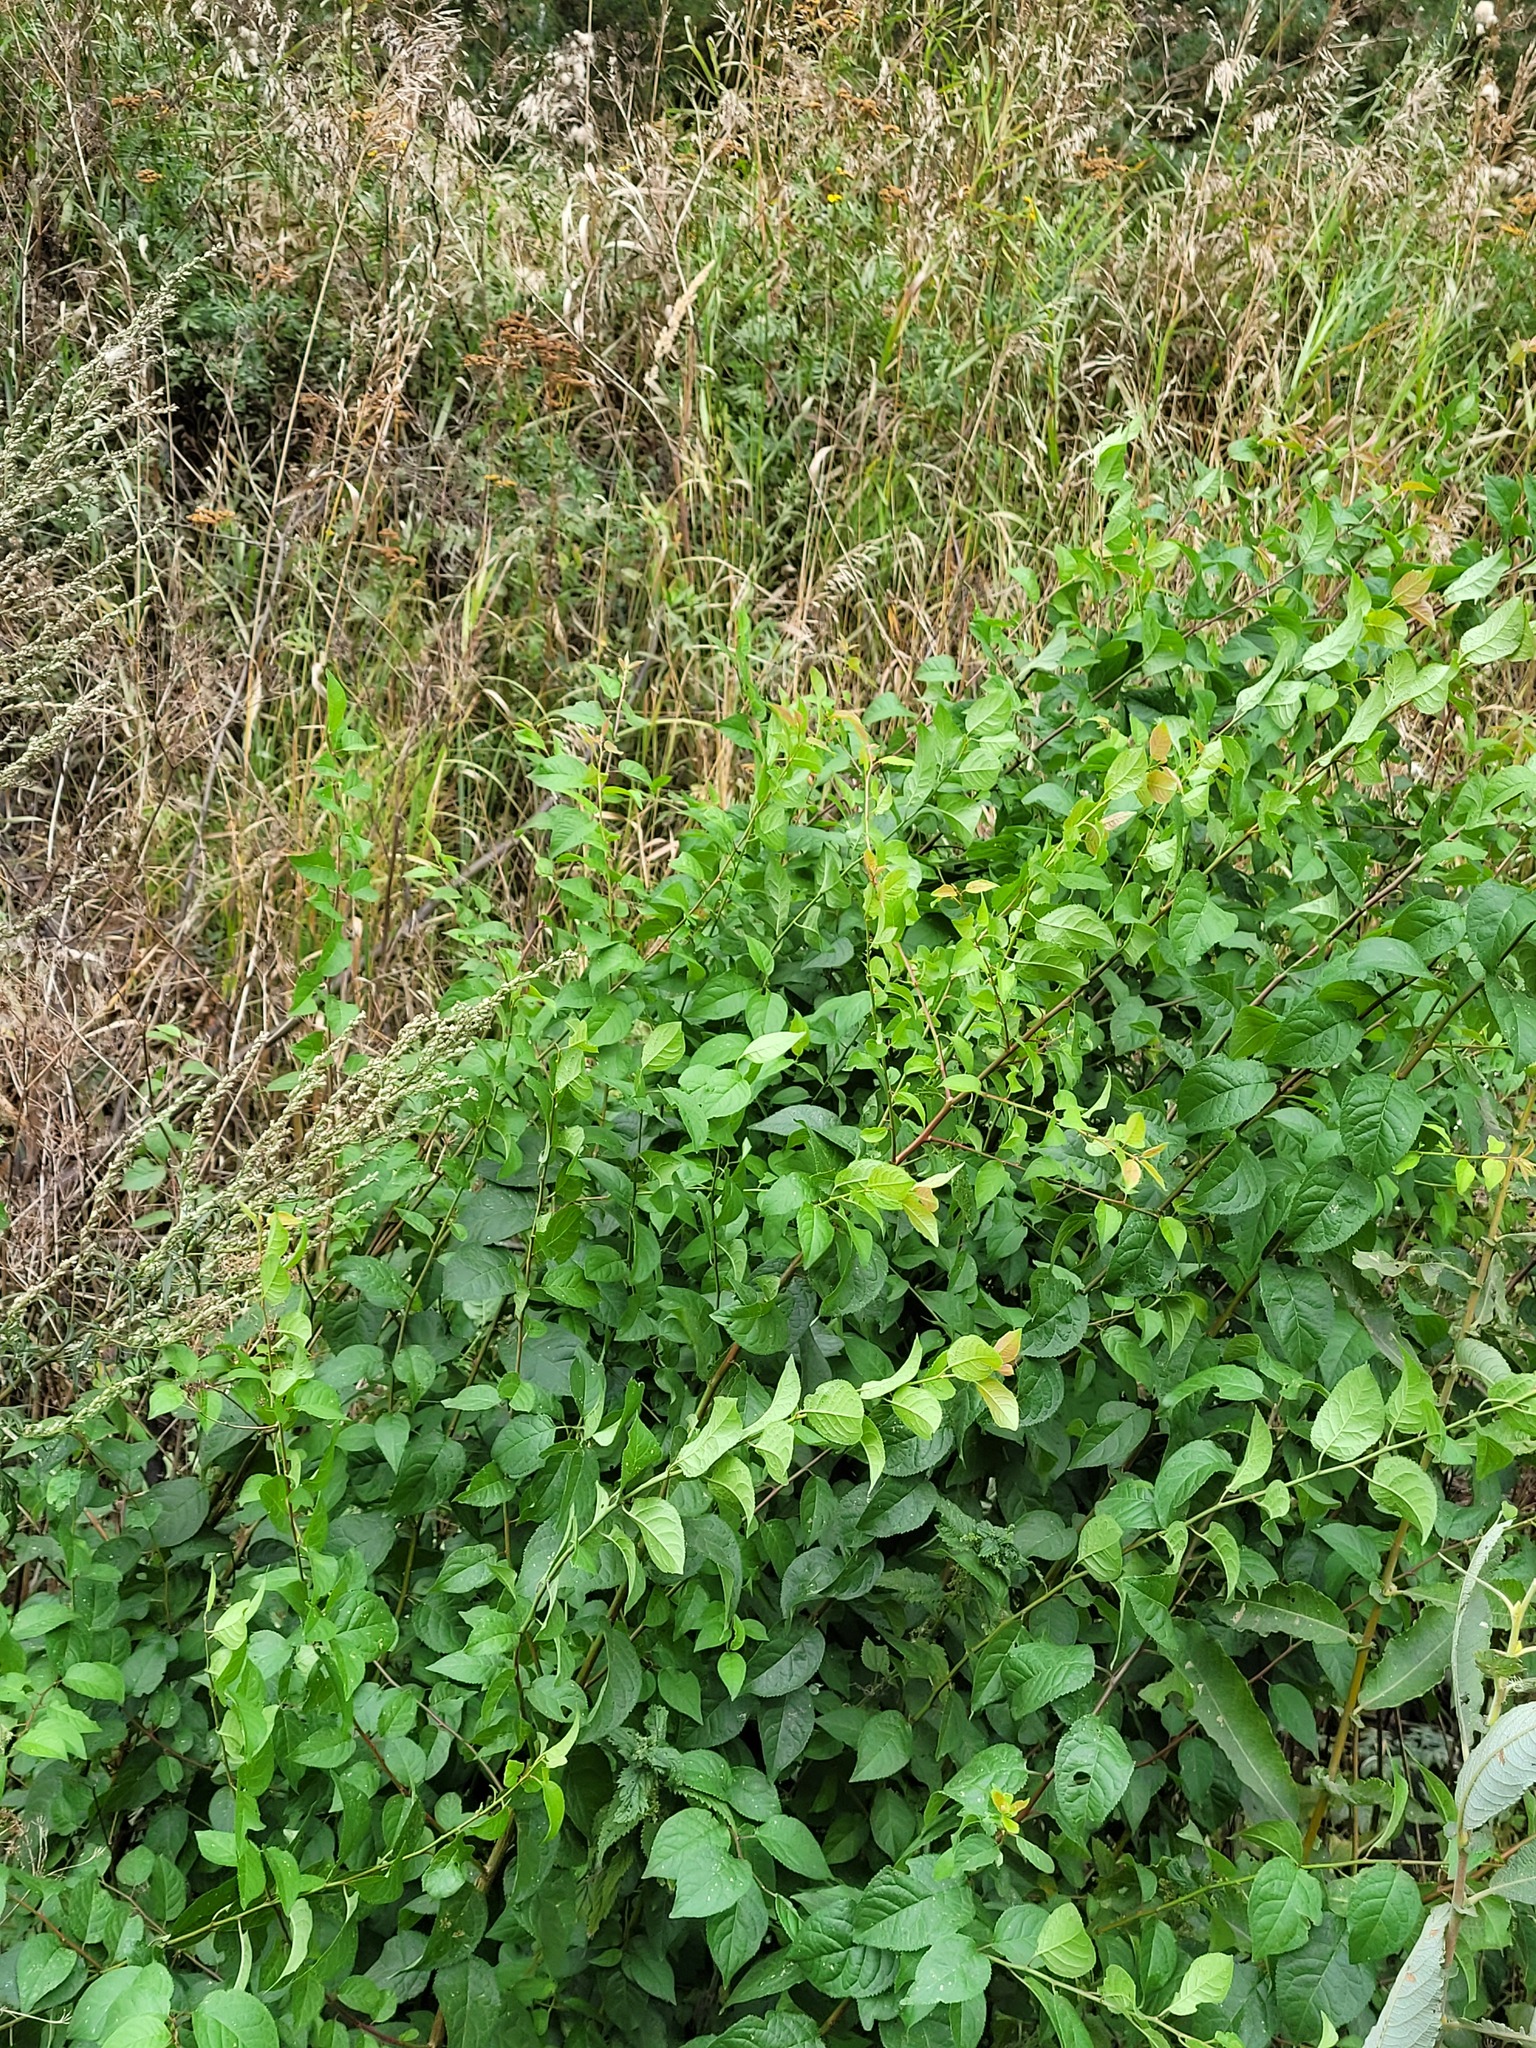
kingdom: Plantae
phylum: Tracheophyta
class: Magnoliopsida
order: Rosales
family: Rosaceae
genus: Prunus
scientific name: Prunus cerasifera
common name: Cherry plum
